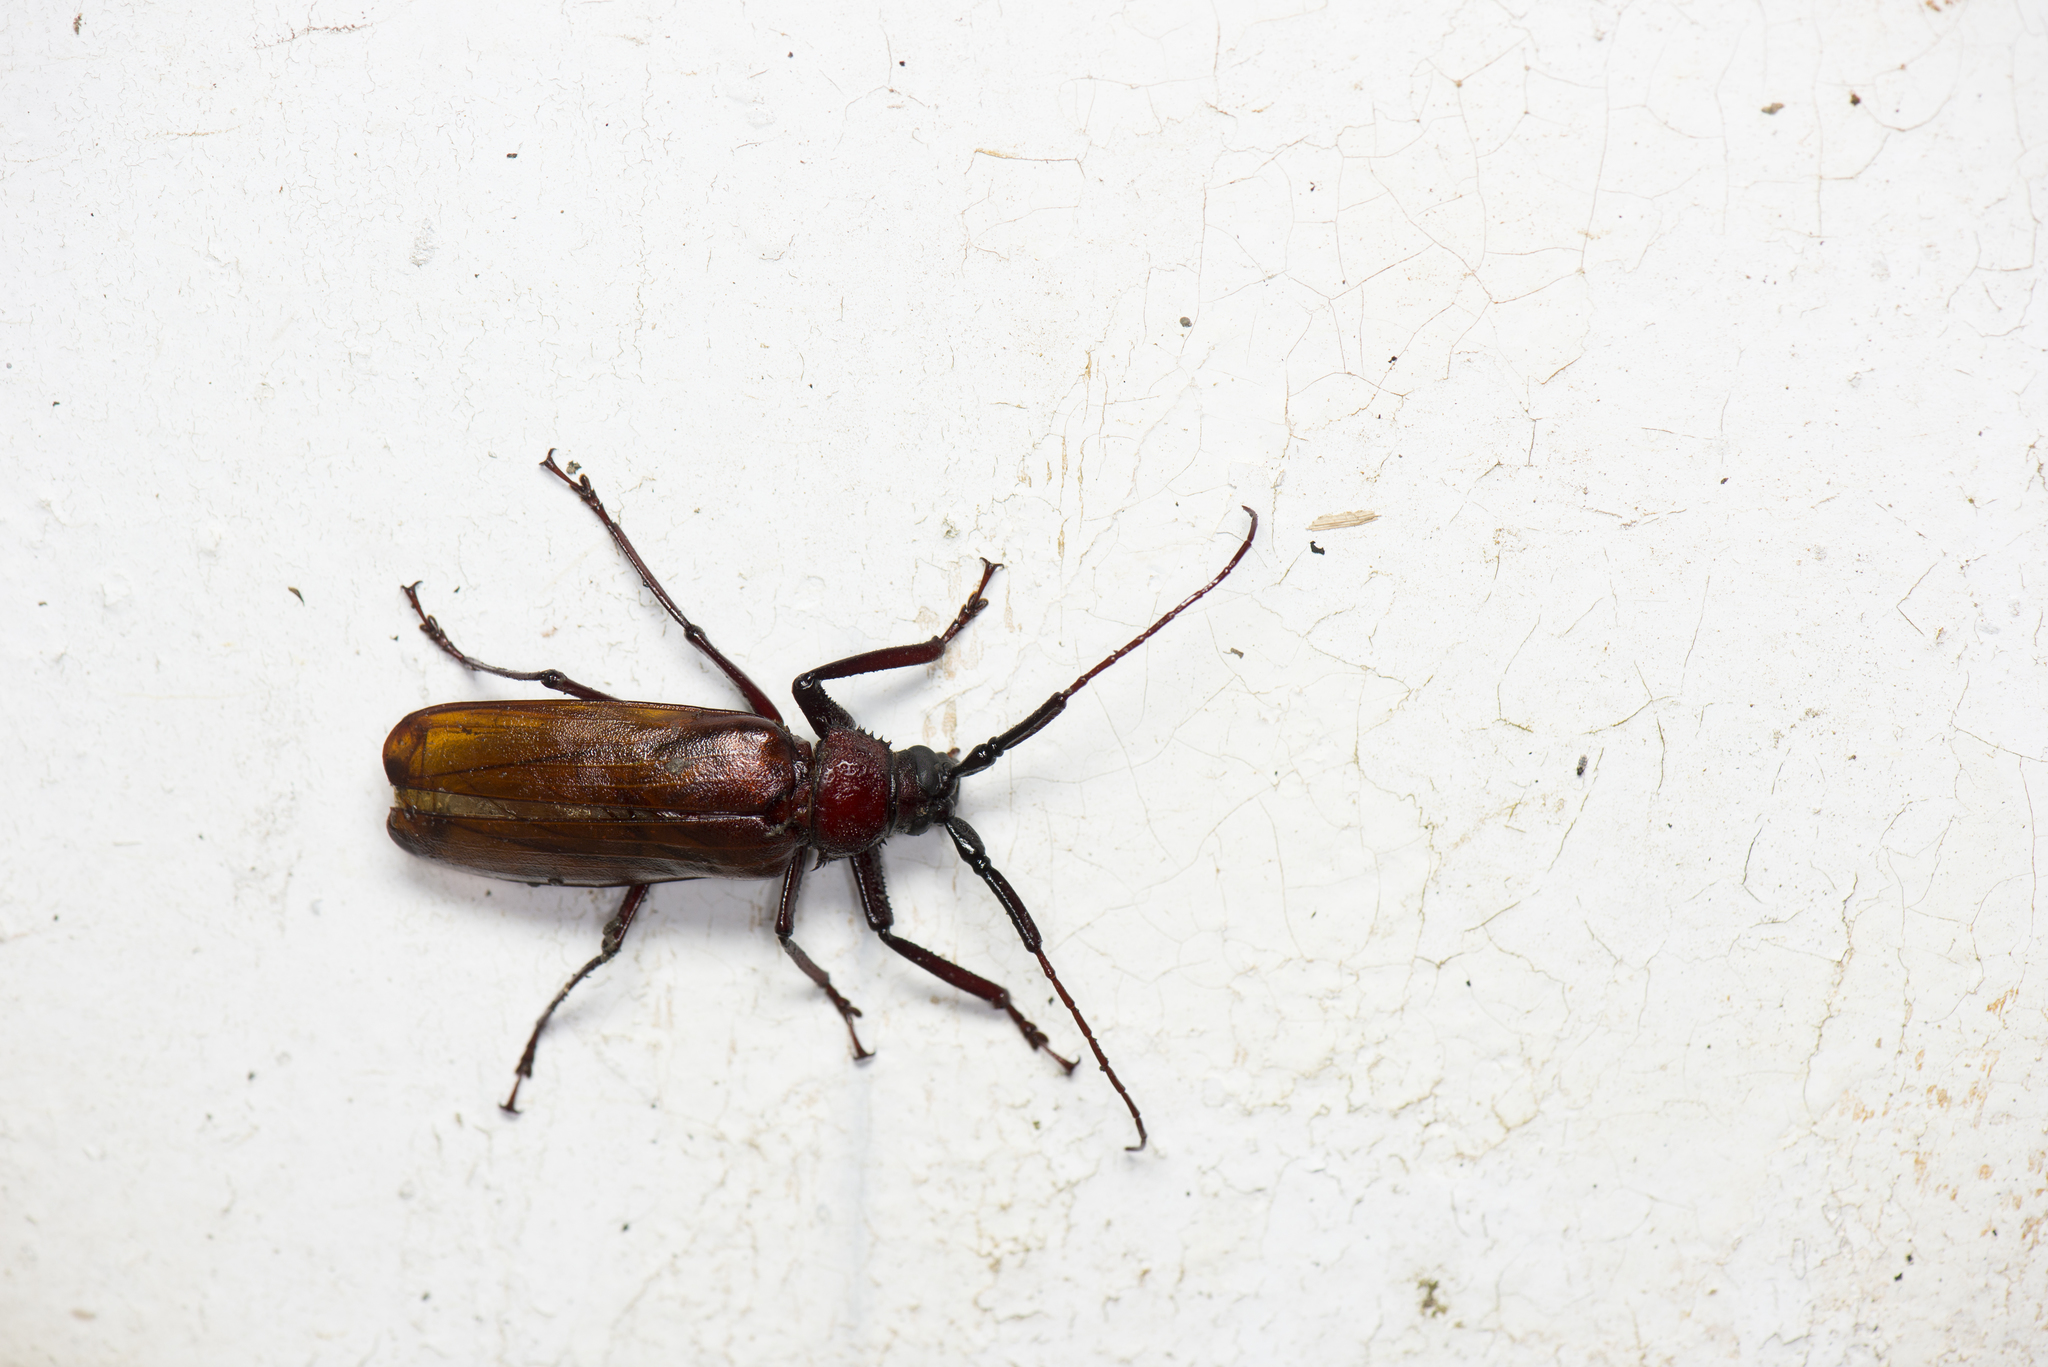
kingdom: Animalia
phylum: Arthropoda
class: Insecta
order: Coleoptera
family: Cerambycidae
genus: Bandar
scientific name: Bandar pascoei
